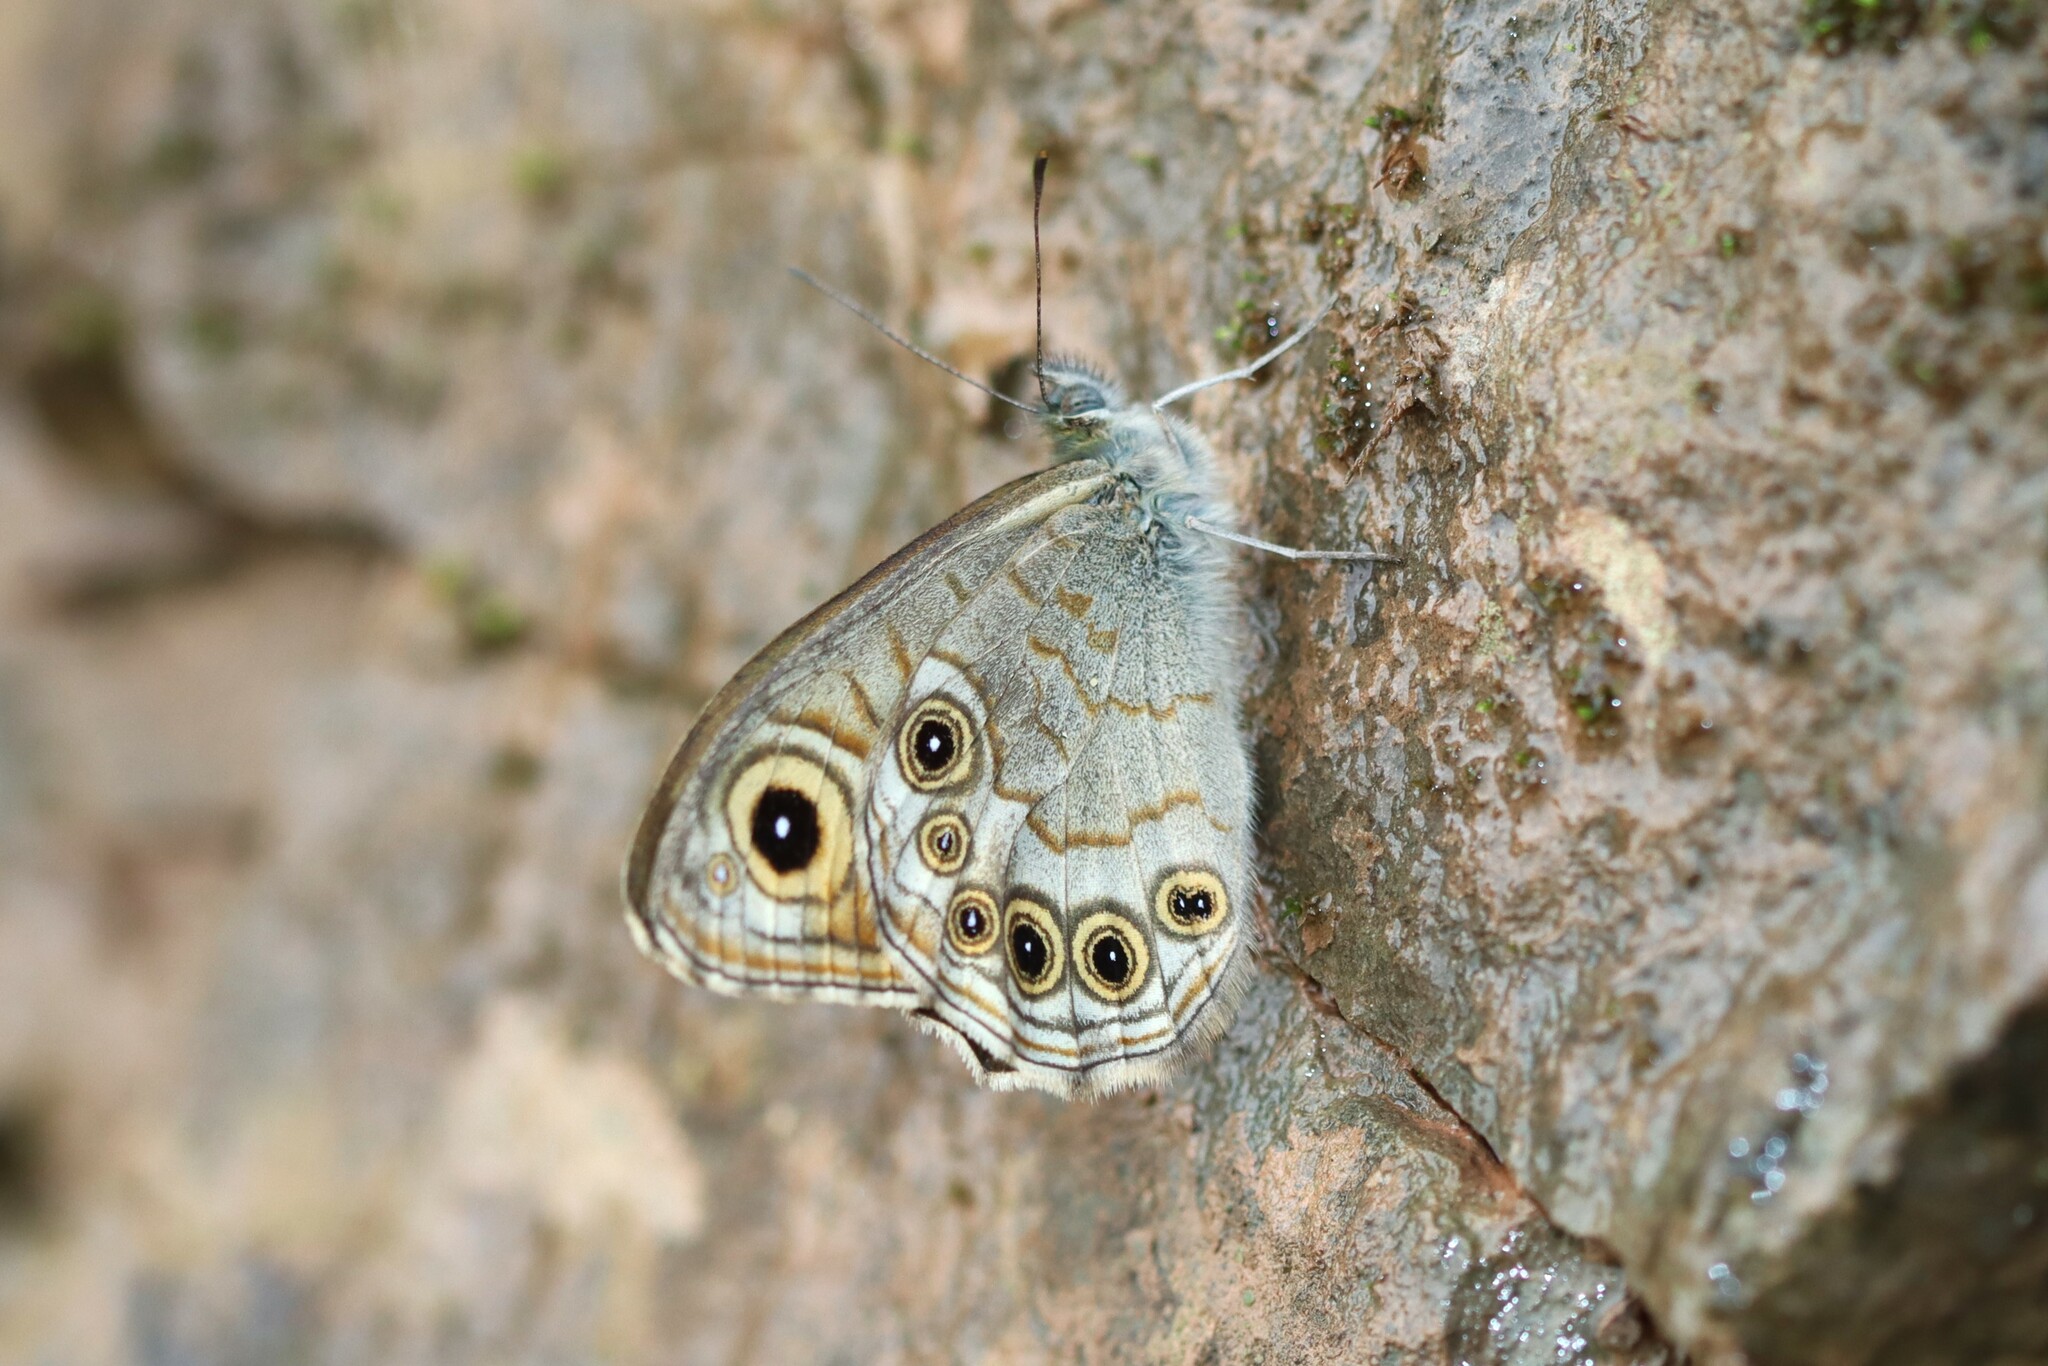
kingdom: Animalia
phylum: Arthropoda
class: Insecta
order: Lepidoptera
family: Nymphalidae
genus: Pararge
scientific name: Pararge Lasiommata schakra
